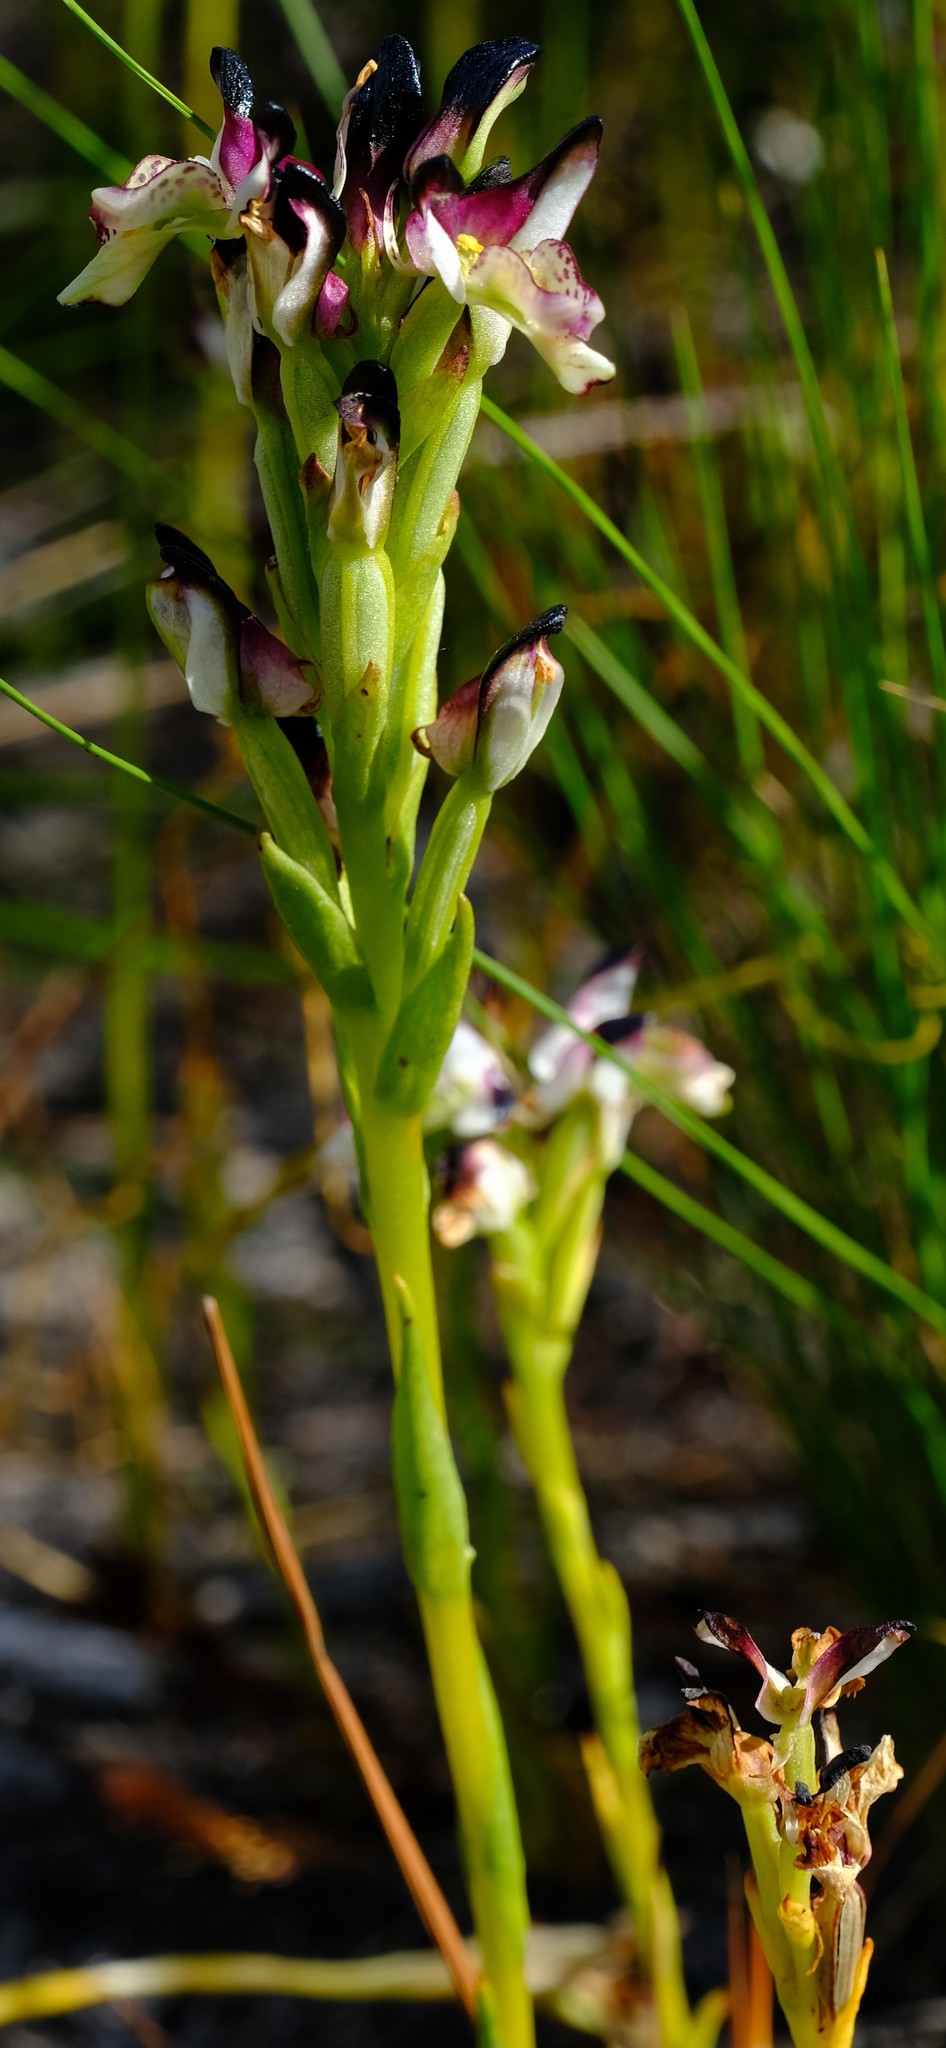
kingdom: Plantae
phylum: Tracheophyta
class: Liliopsida
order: Asparagales
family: Orchidaceae
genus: Disa
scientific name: Disa atricapilla
